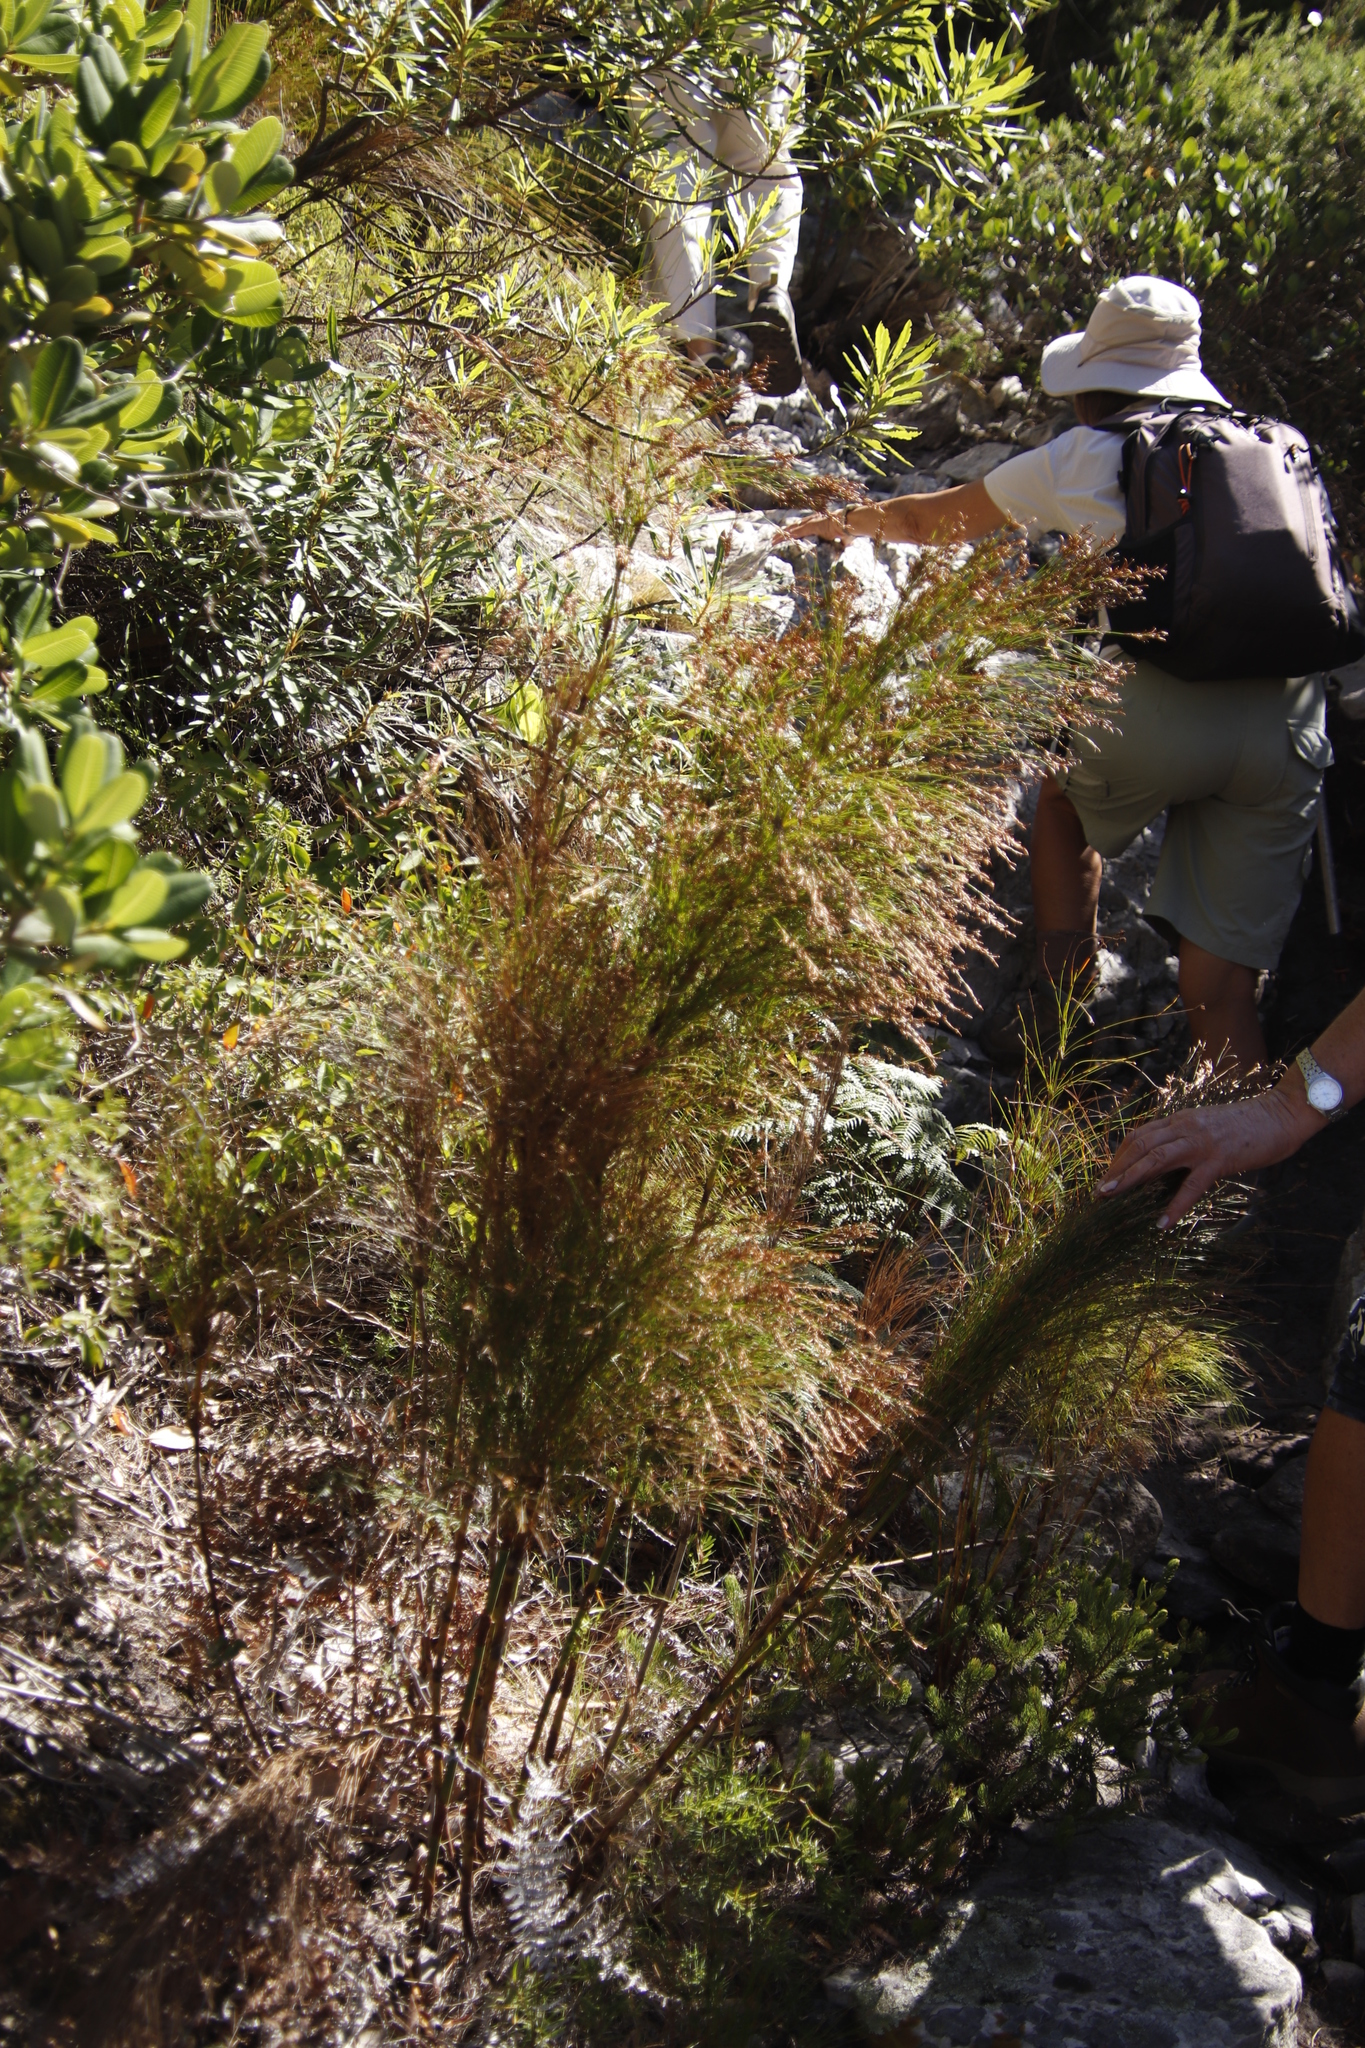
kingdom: Plantae
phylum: Tracheophyta
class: Liliopsida
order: Poales
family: Restionaceae
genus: Restio
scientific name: Restio subverticillatus
